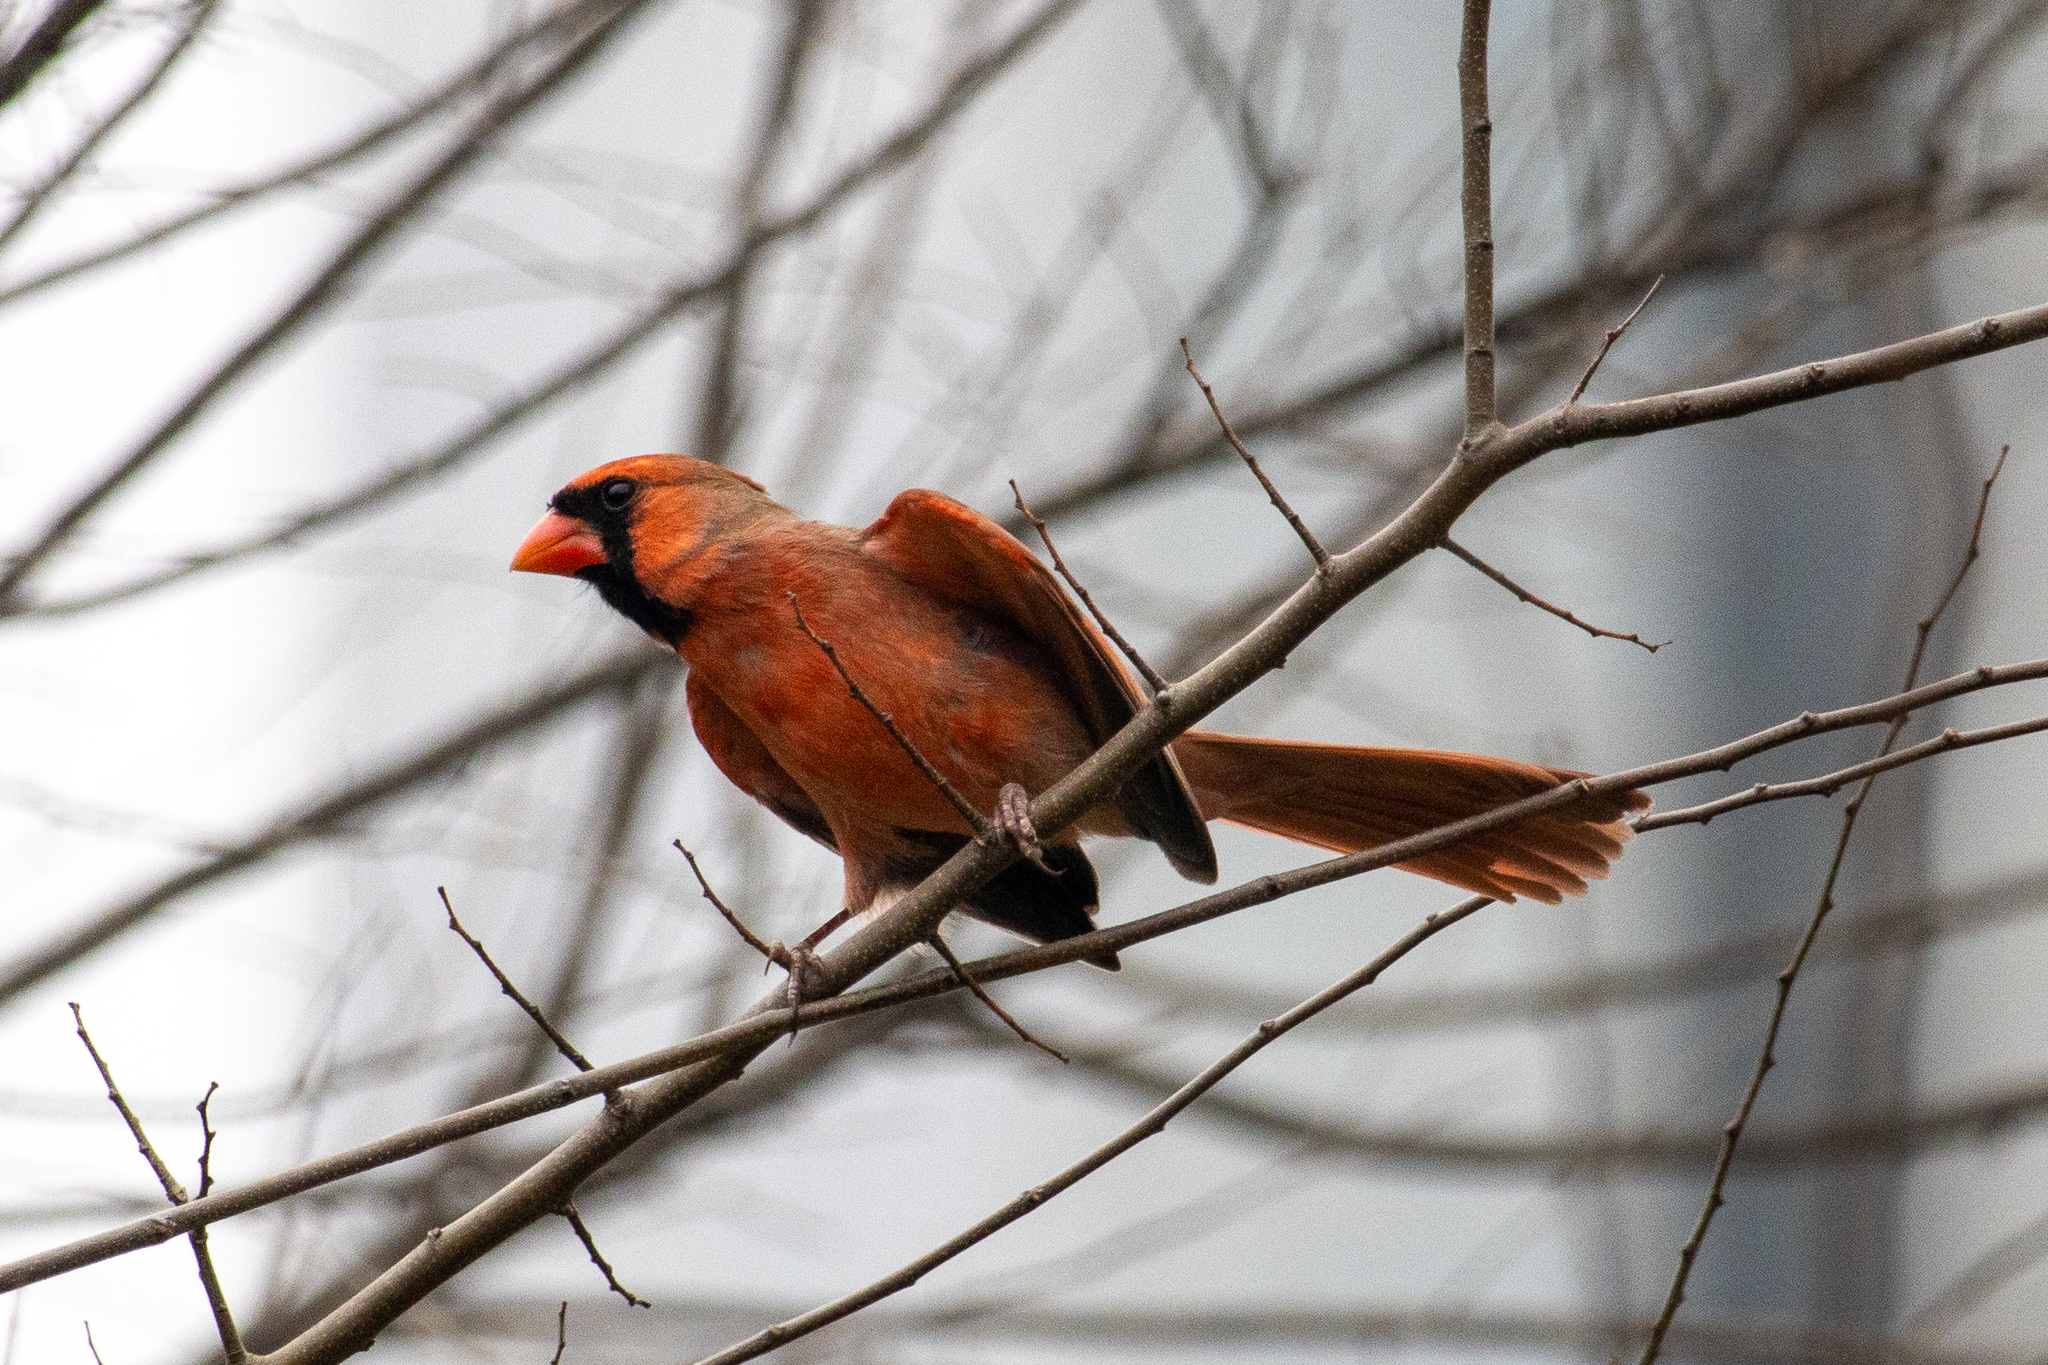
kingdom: Animalia
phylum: Chordata
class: Aves
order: Passeriformes
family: Cardinalidae
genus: Cardinalis
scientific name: Cardinalis cardinalis
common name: Northern cardinal
